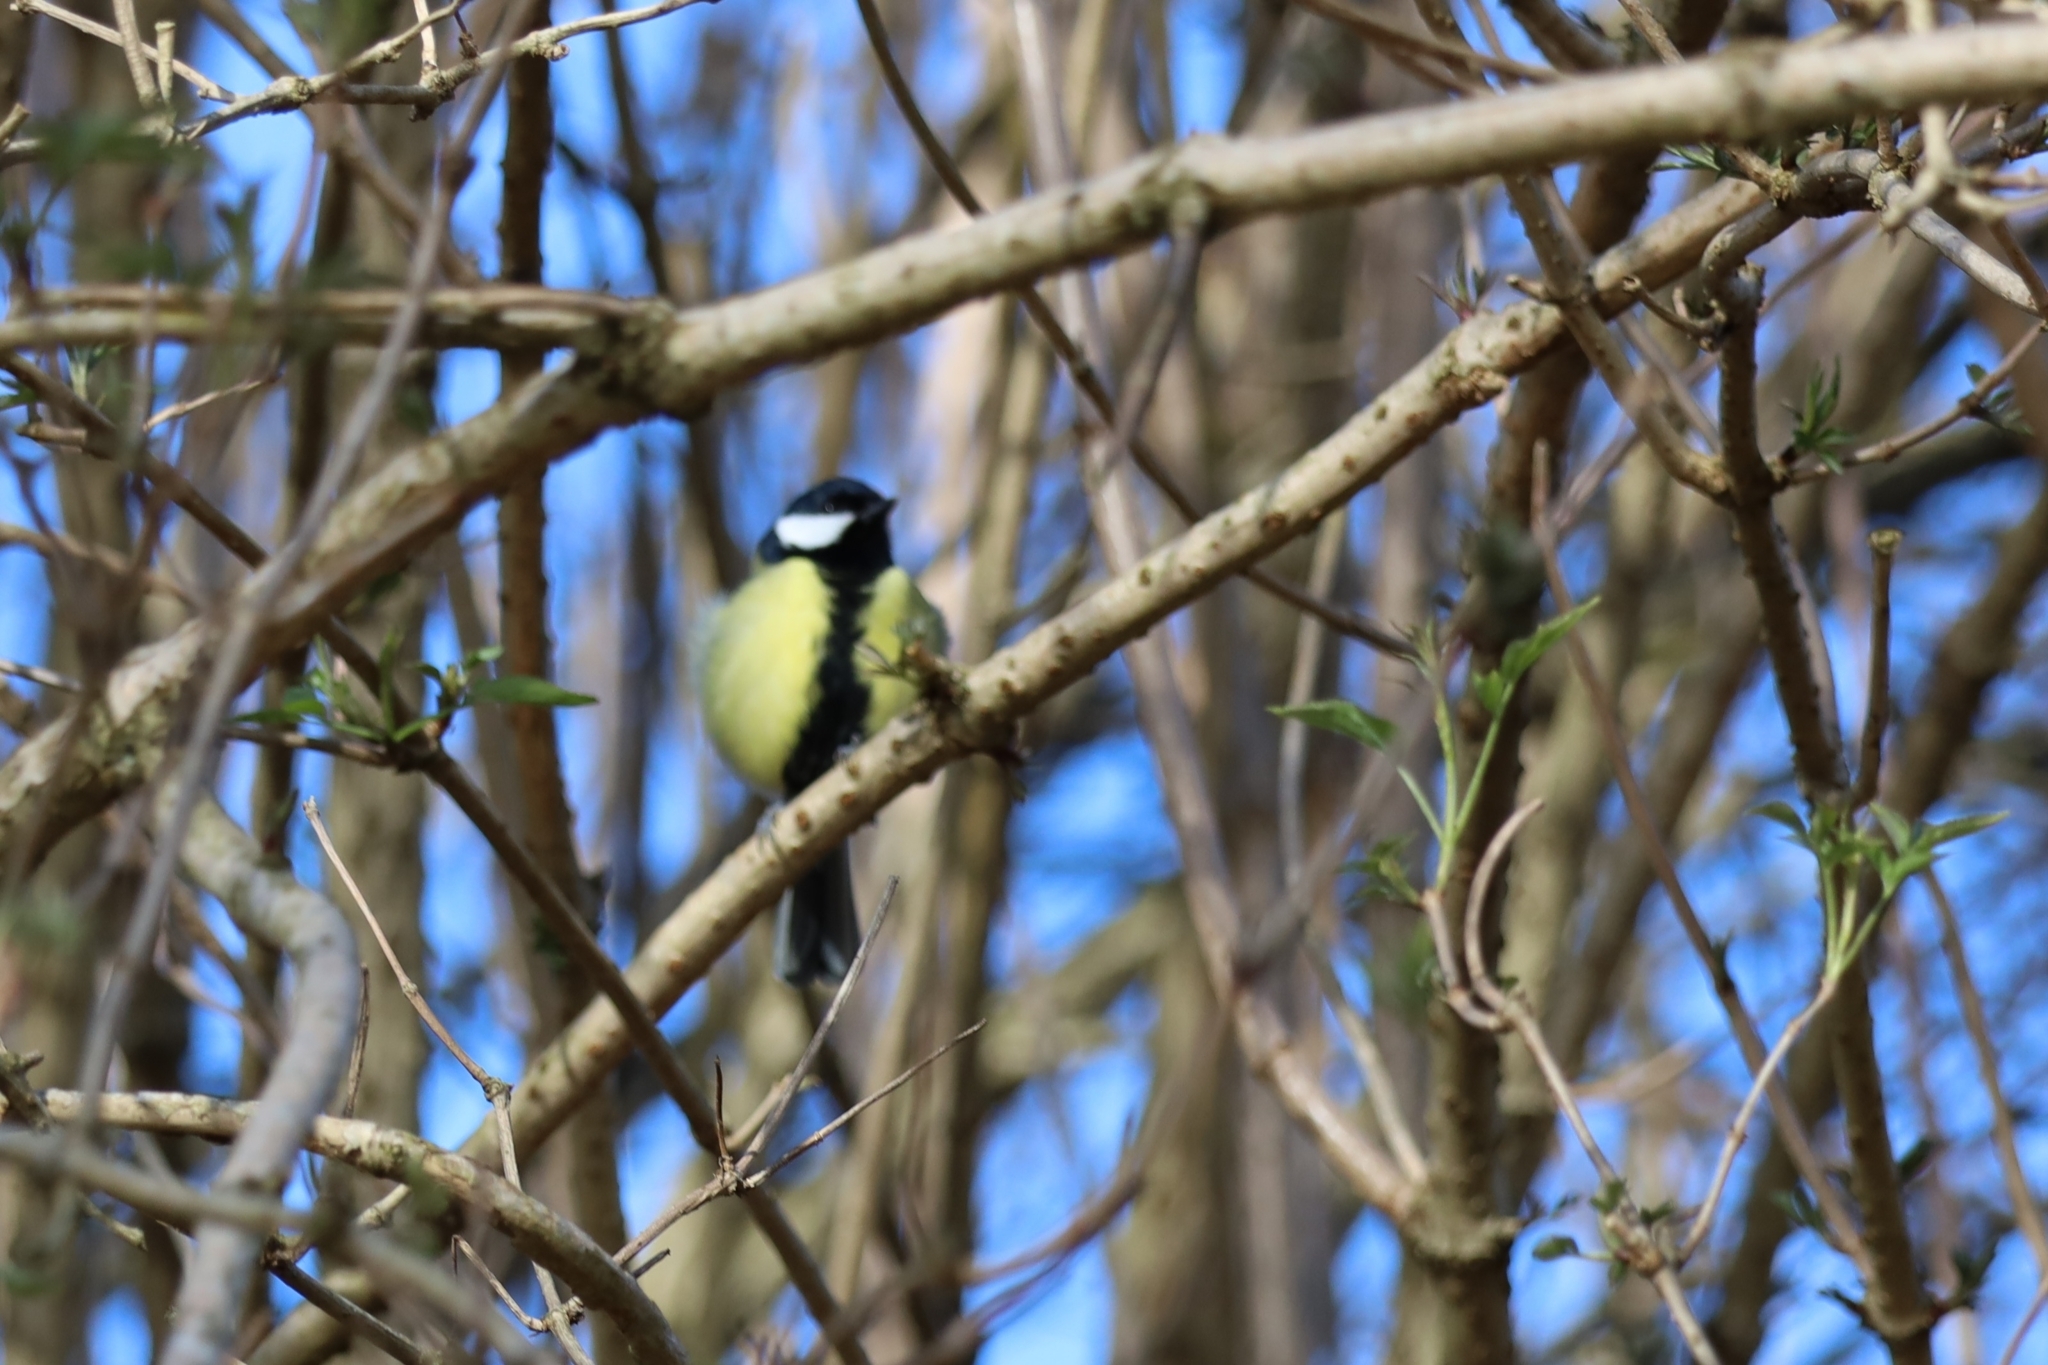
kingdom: Animalia
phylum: Chordata
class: Aves
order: Passeriformes
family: Paridae
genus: Parus
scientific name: Parus major
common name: Great tit
